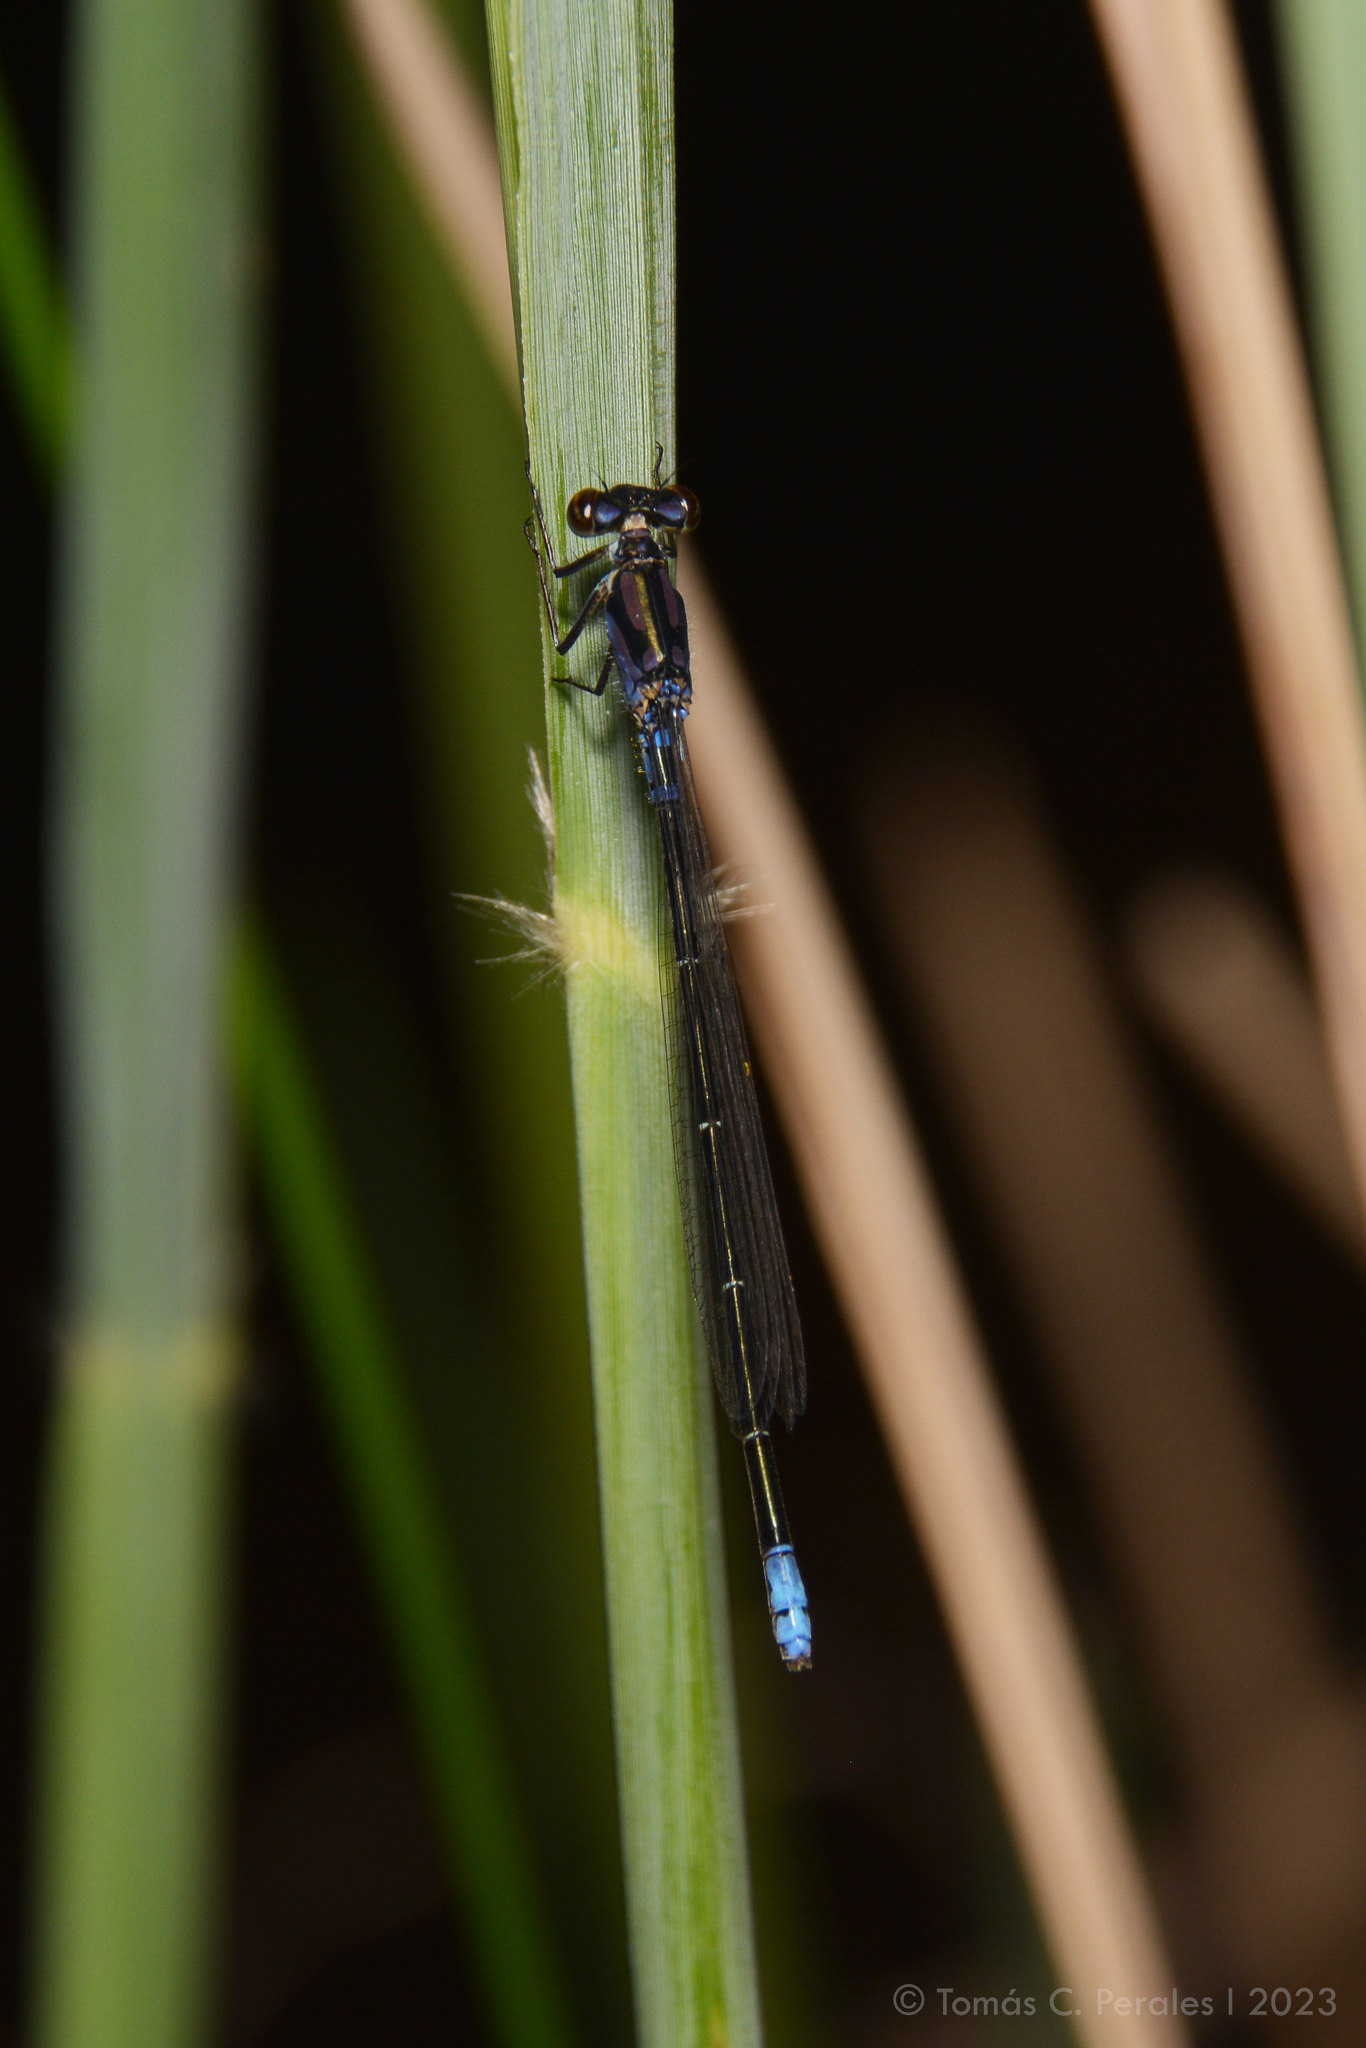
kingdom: Animalia
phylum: Arthropoda
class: Insecta
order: Odonata
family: Coenagrionidae
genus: Cyanallagma
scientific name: Cyanallagma bonariense
